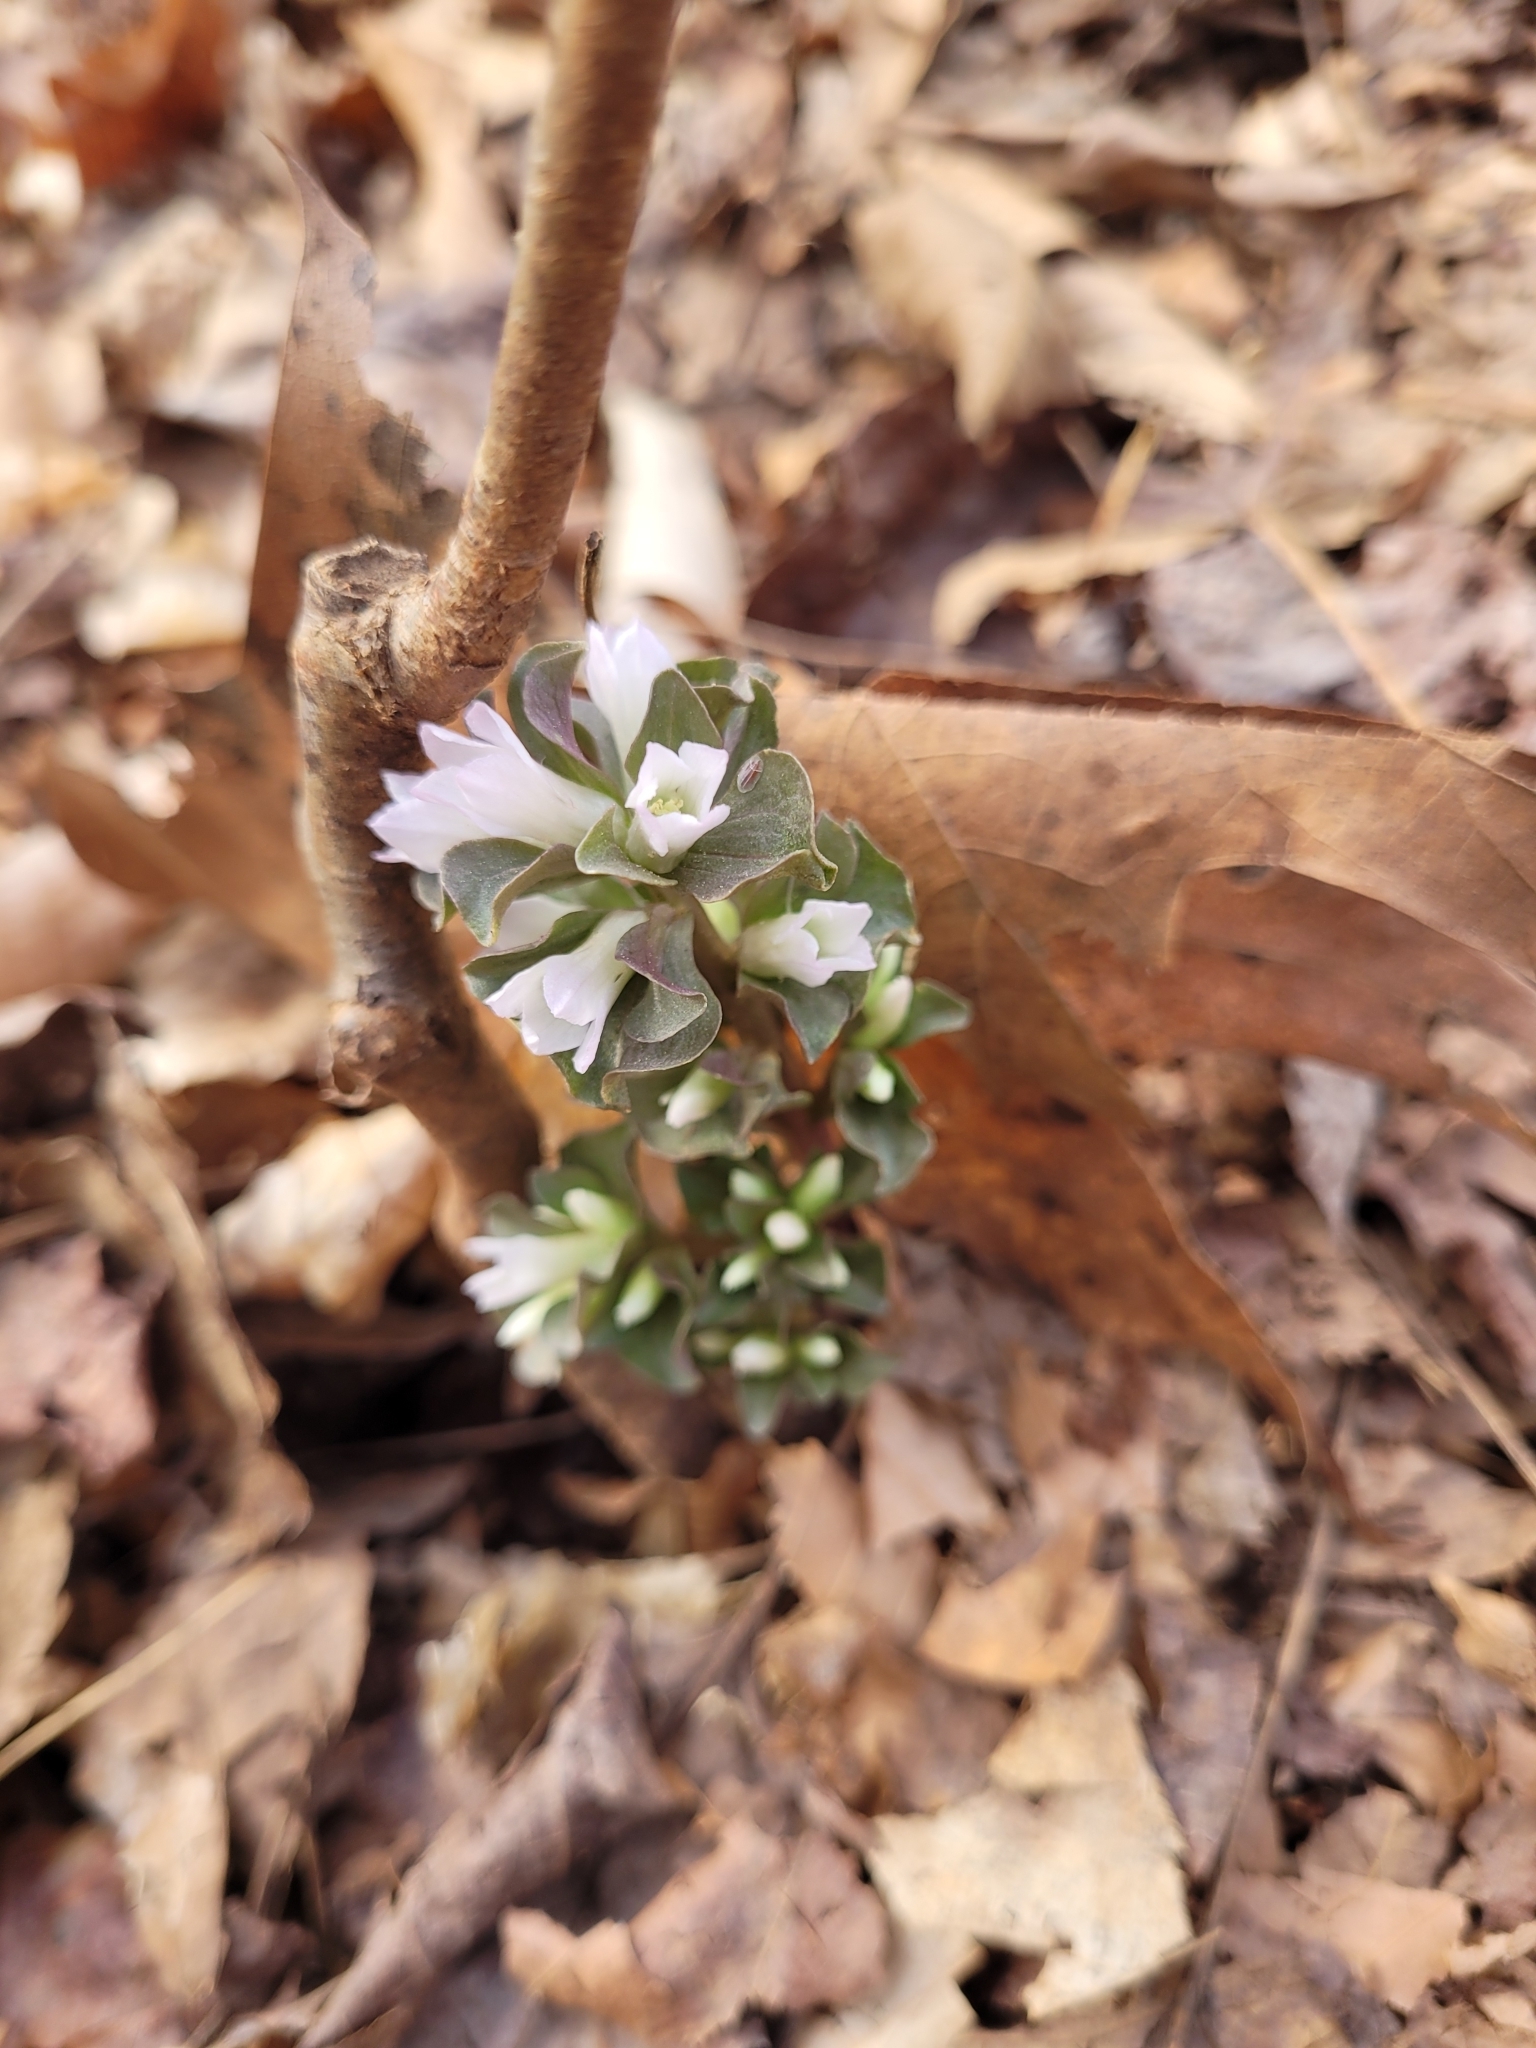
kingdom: Plantae
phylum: Tracheophyta
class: Magnoliopsida
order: Gentianales
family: Gentianaceae
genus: Obolaria
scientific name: Obolaria virginica
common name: Pennywort
